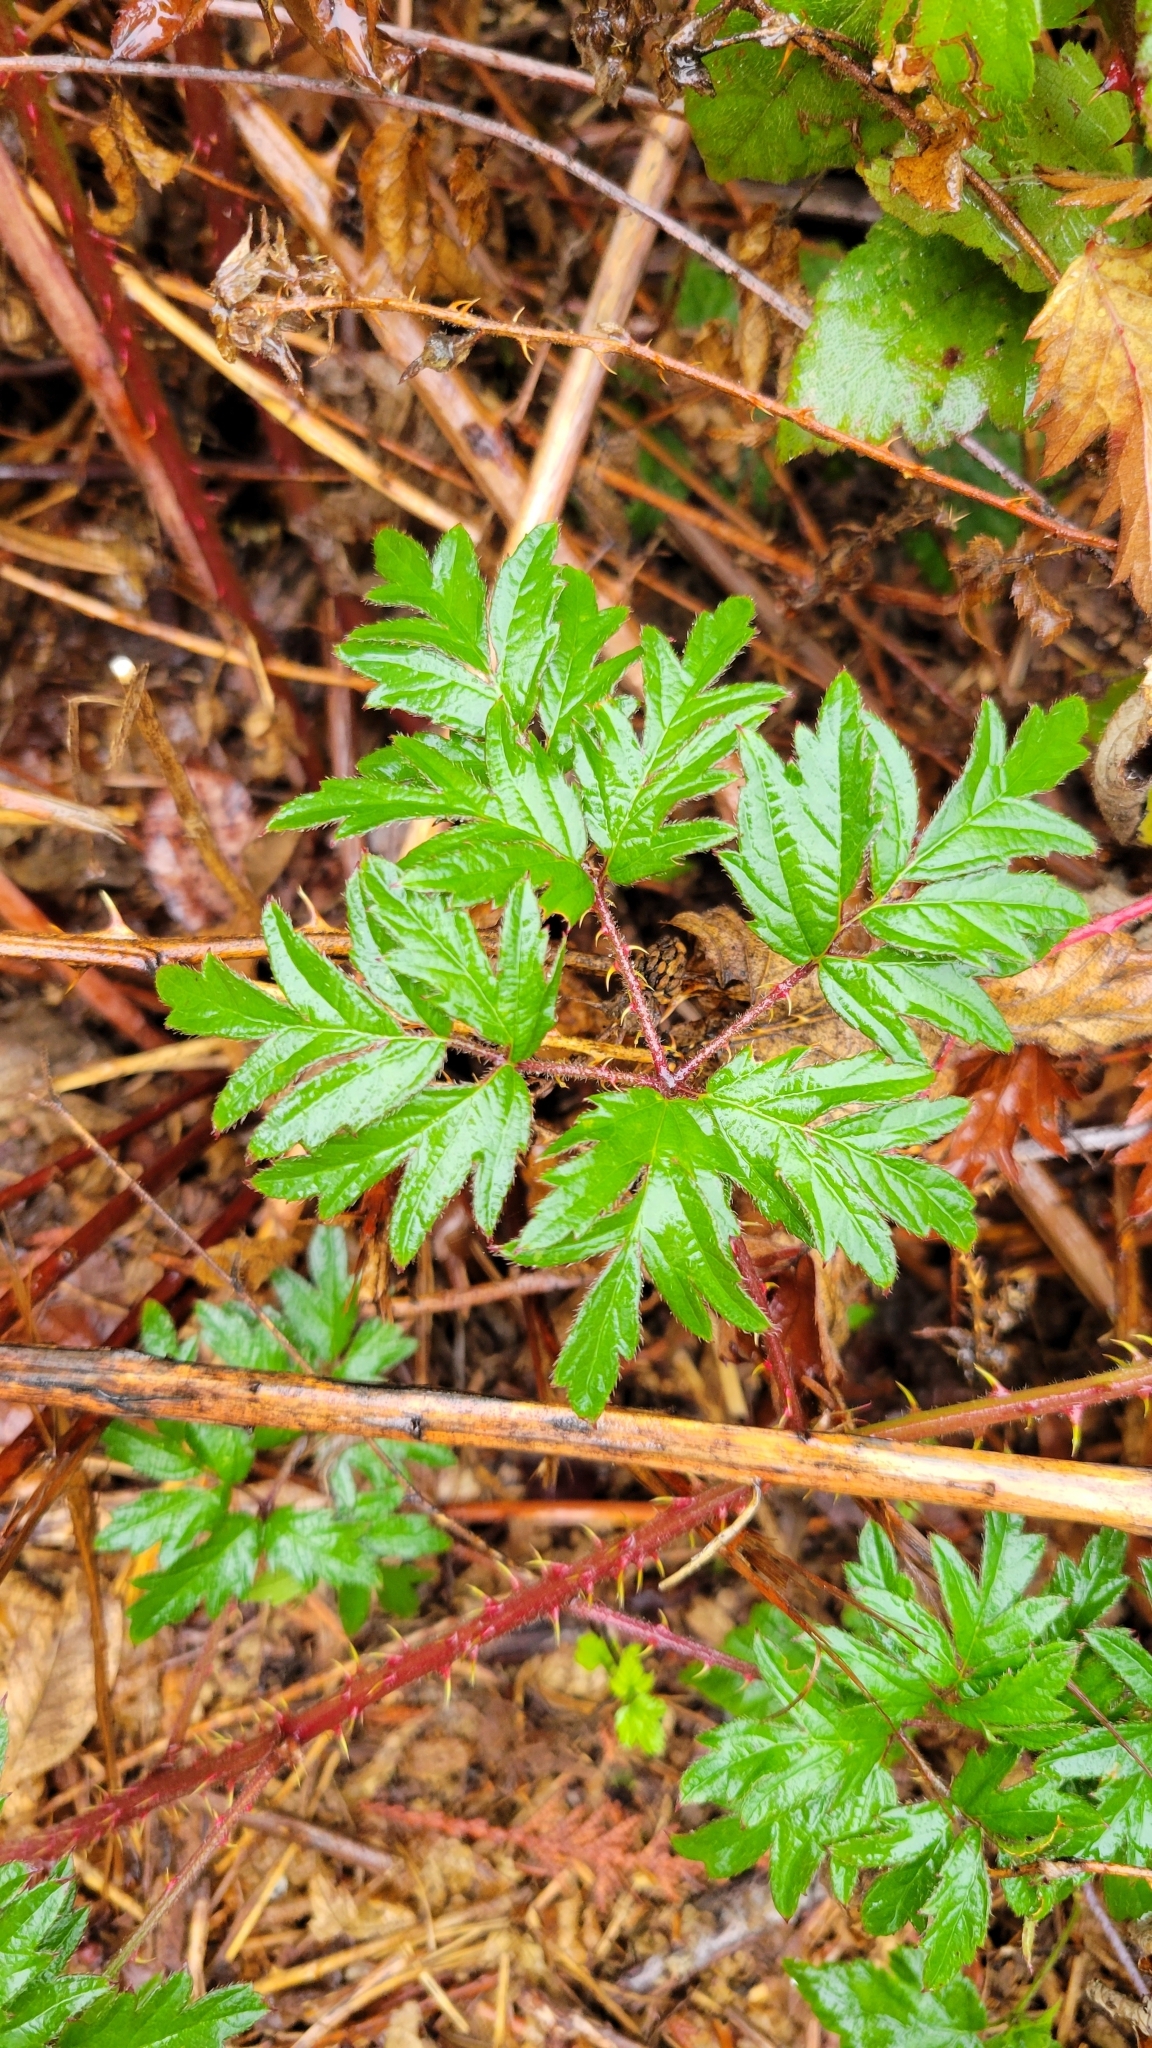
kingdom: Plantae
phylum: Tracheophyta
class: Magnoliopsida
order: Rosales
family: Rosaceae
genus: Rubus
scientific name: Rubus laciniatus
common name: Evergreen blackberry
